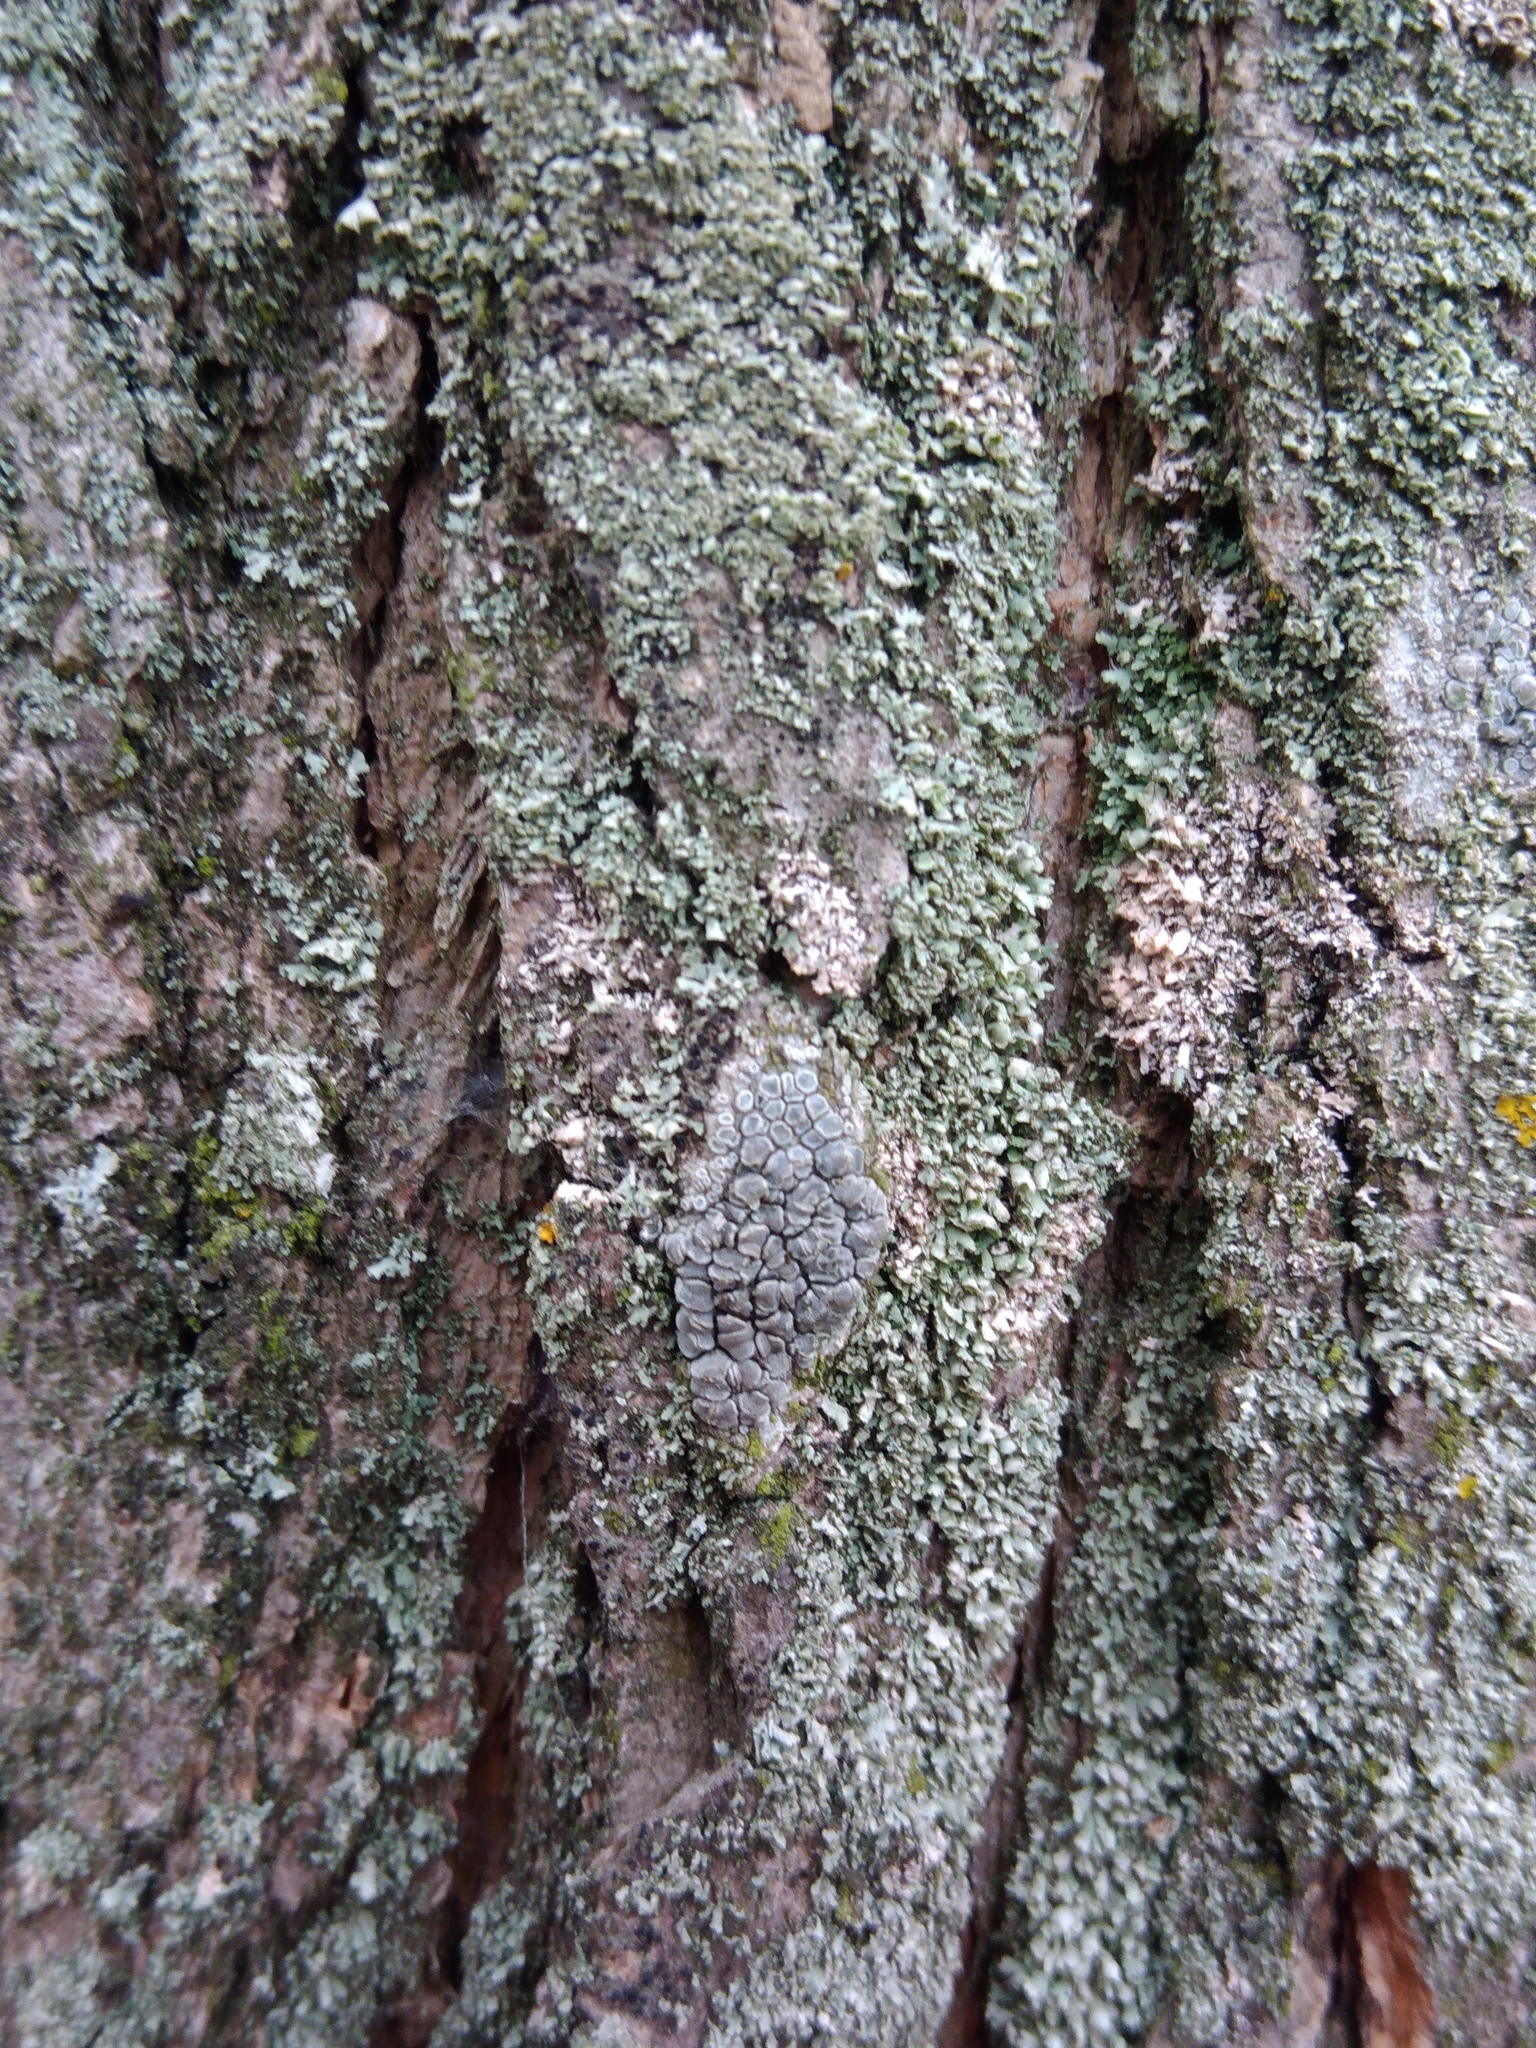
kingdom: Fungi
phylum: Ascomycota
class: Lecanoromycetes
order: Lecanorales
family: Lecanoraceae
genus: Glaucomaria
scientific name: Glaucomaria carpinea
